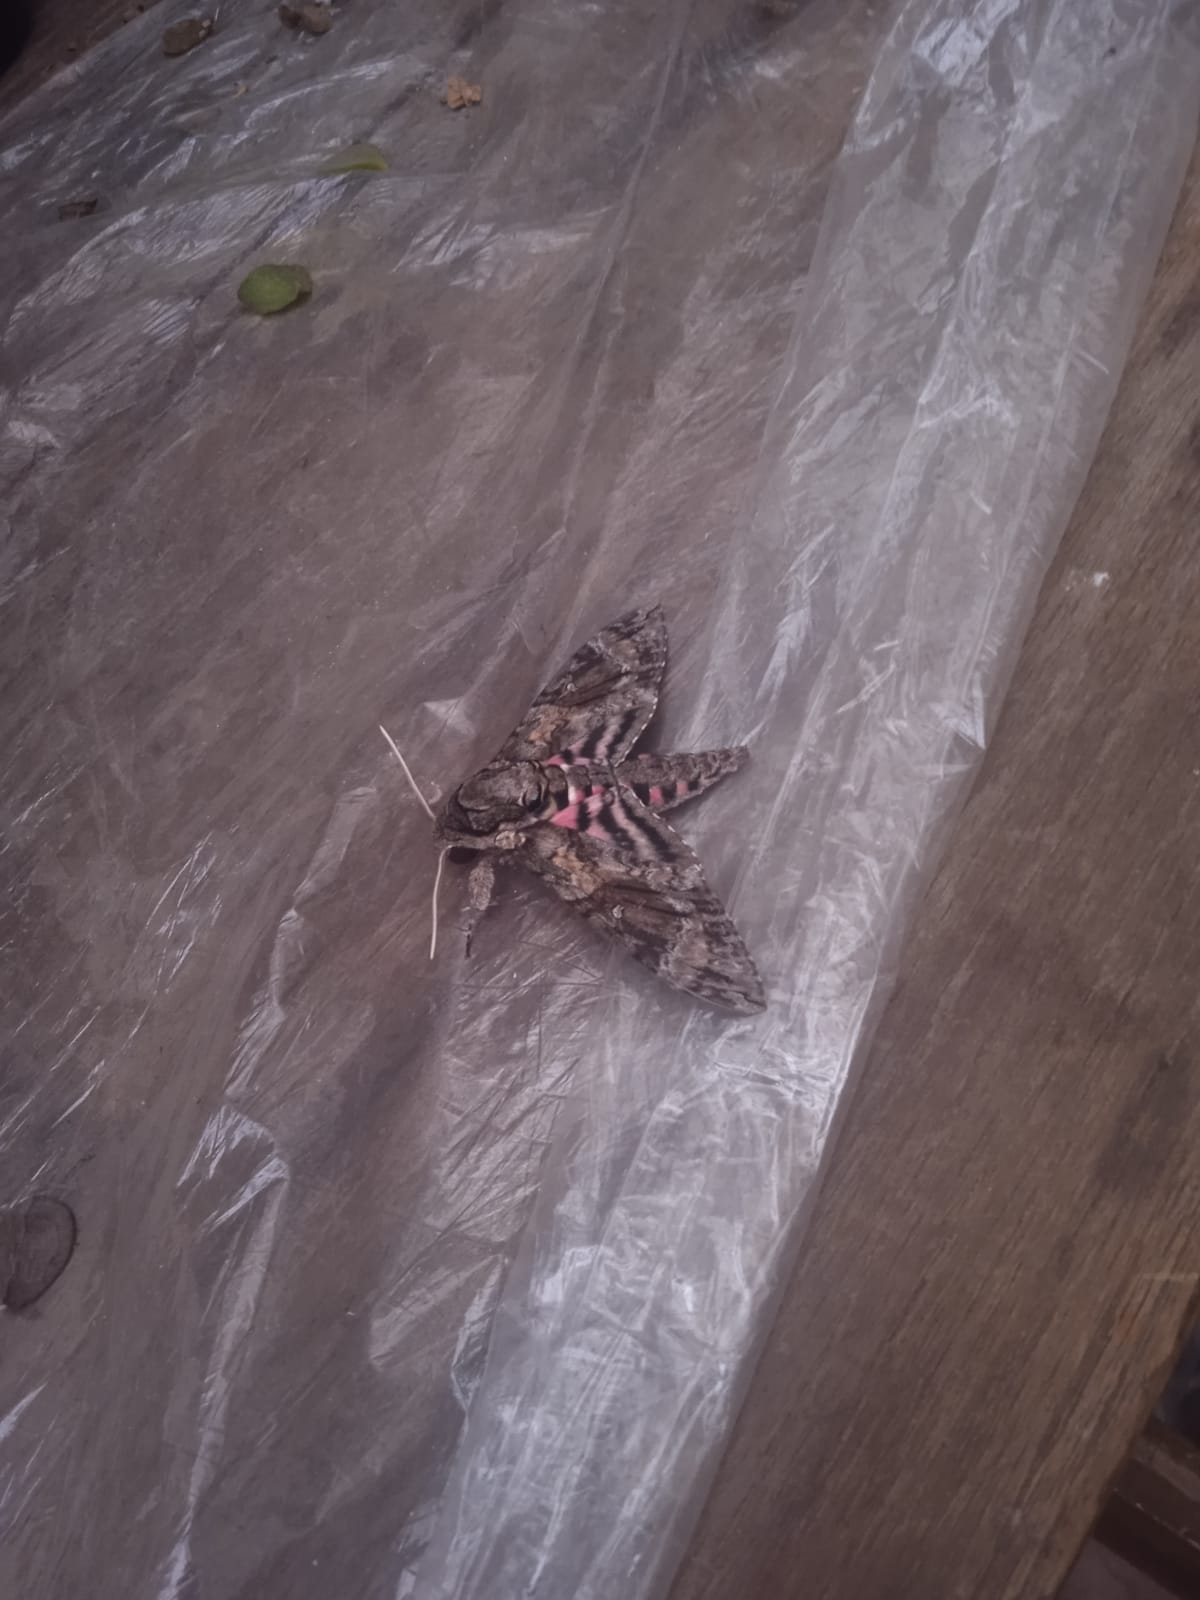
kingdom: Animalia
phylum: Arthropoda
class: Insecta
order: Lepidoptera
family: Sphingidae
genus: Agrius
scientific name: Agrius cingulata
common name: Pink-spotted hawkmoth
